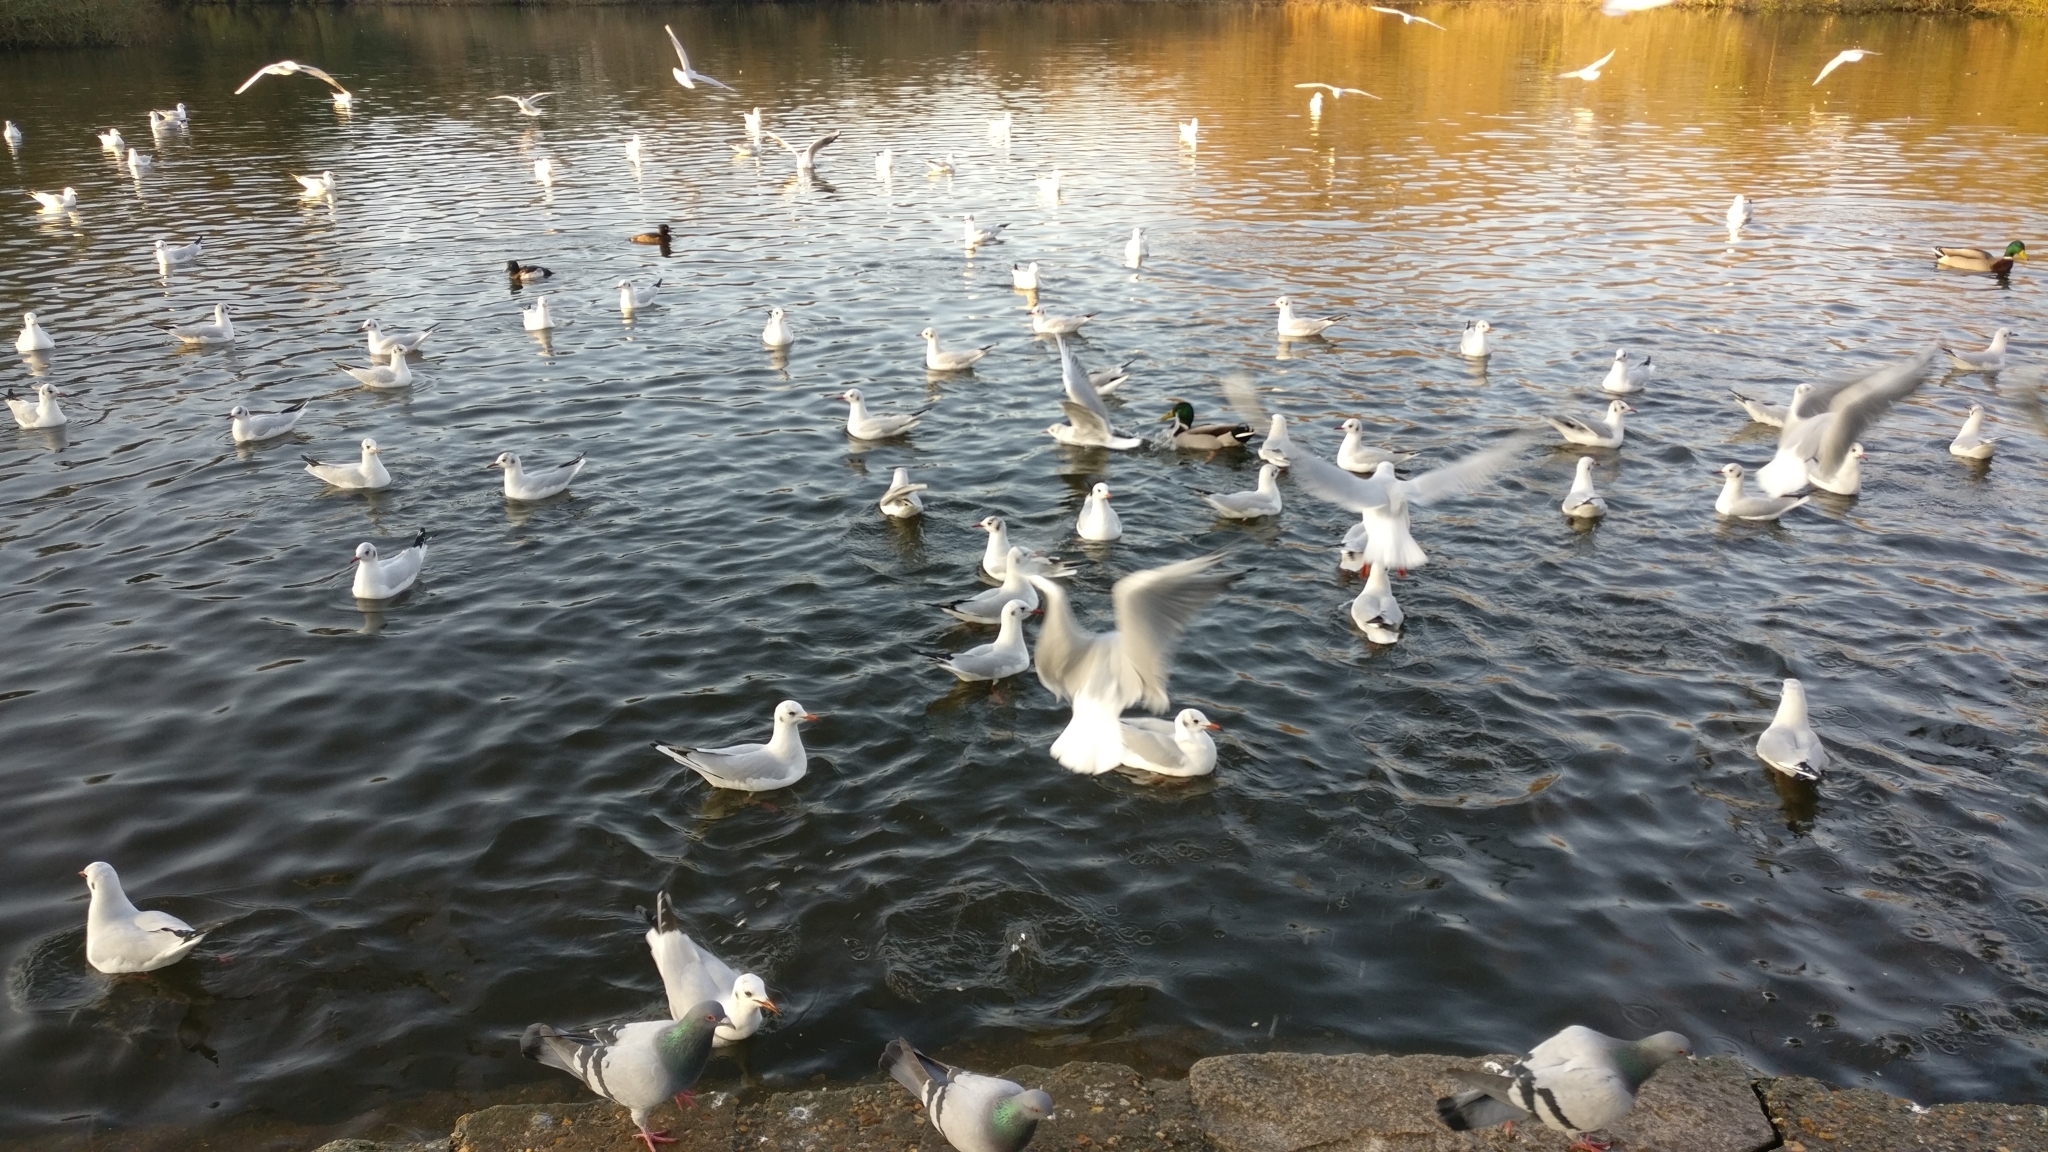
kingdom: Animalia
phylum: Chordata
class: Aves
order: Charadriiformes
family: Laridae
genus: Chroicocephalus
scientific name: Chroicocephalus ridibundus
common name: Black-headed gull
